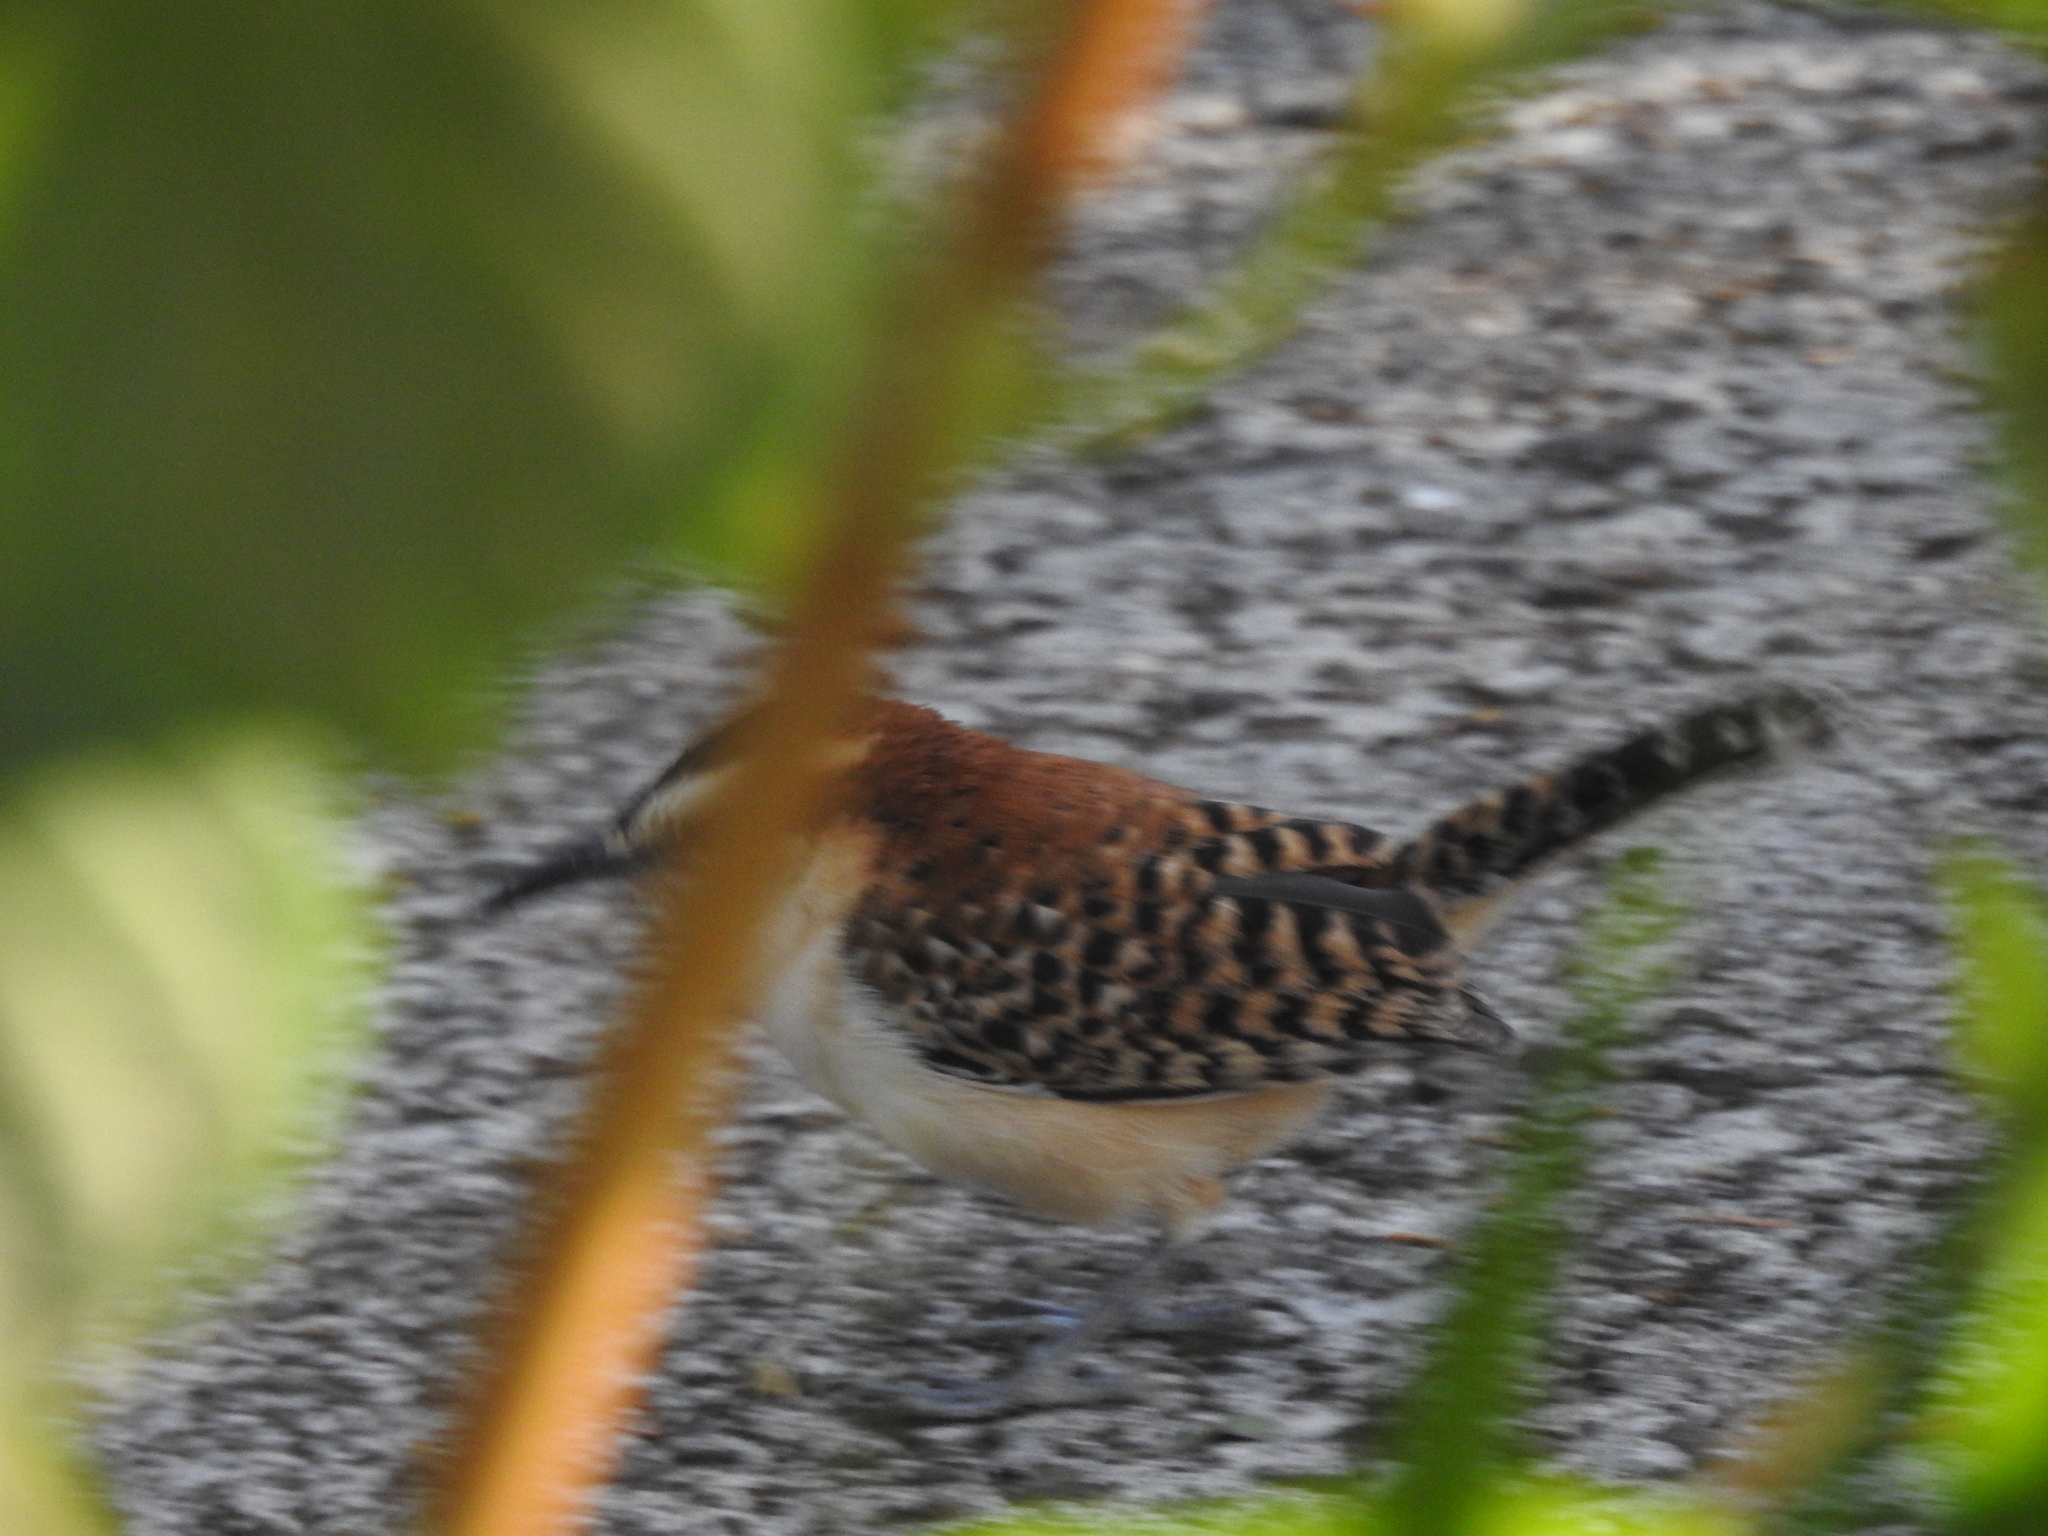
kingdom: Animalia
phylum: Chordata
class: Aves
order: Passeriformes
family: Troglodytidae
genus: Campylorhynchus
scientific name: Campylorhynchus rufinucha
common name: Rufous-naped wren
